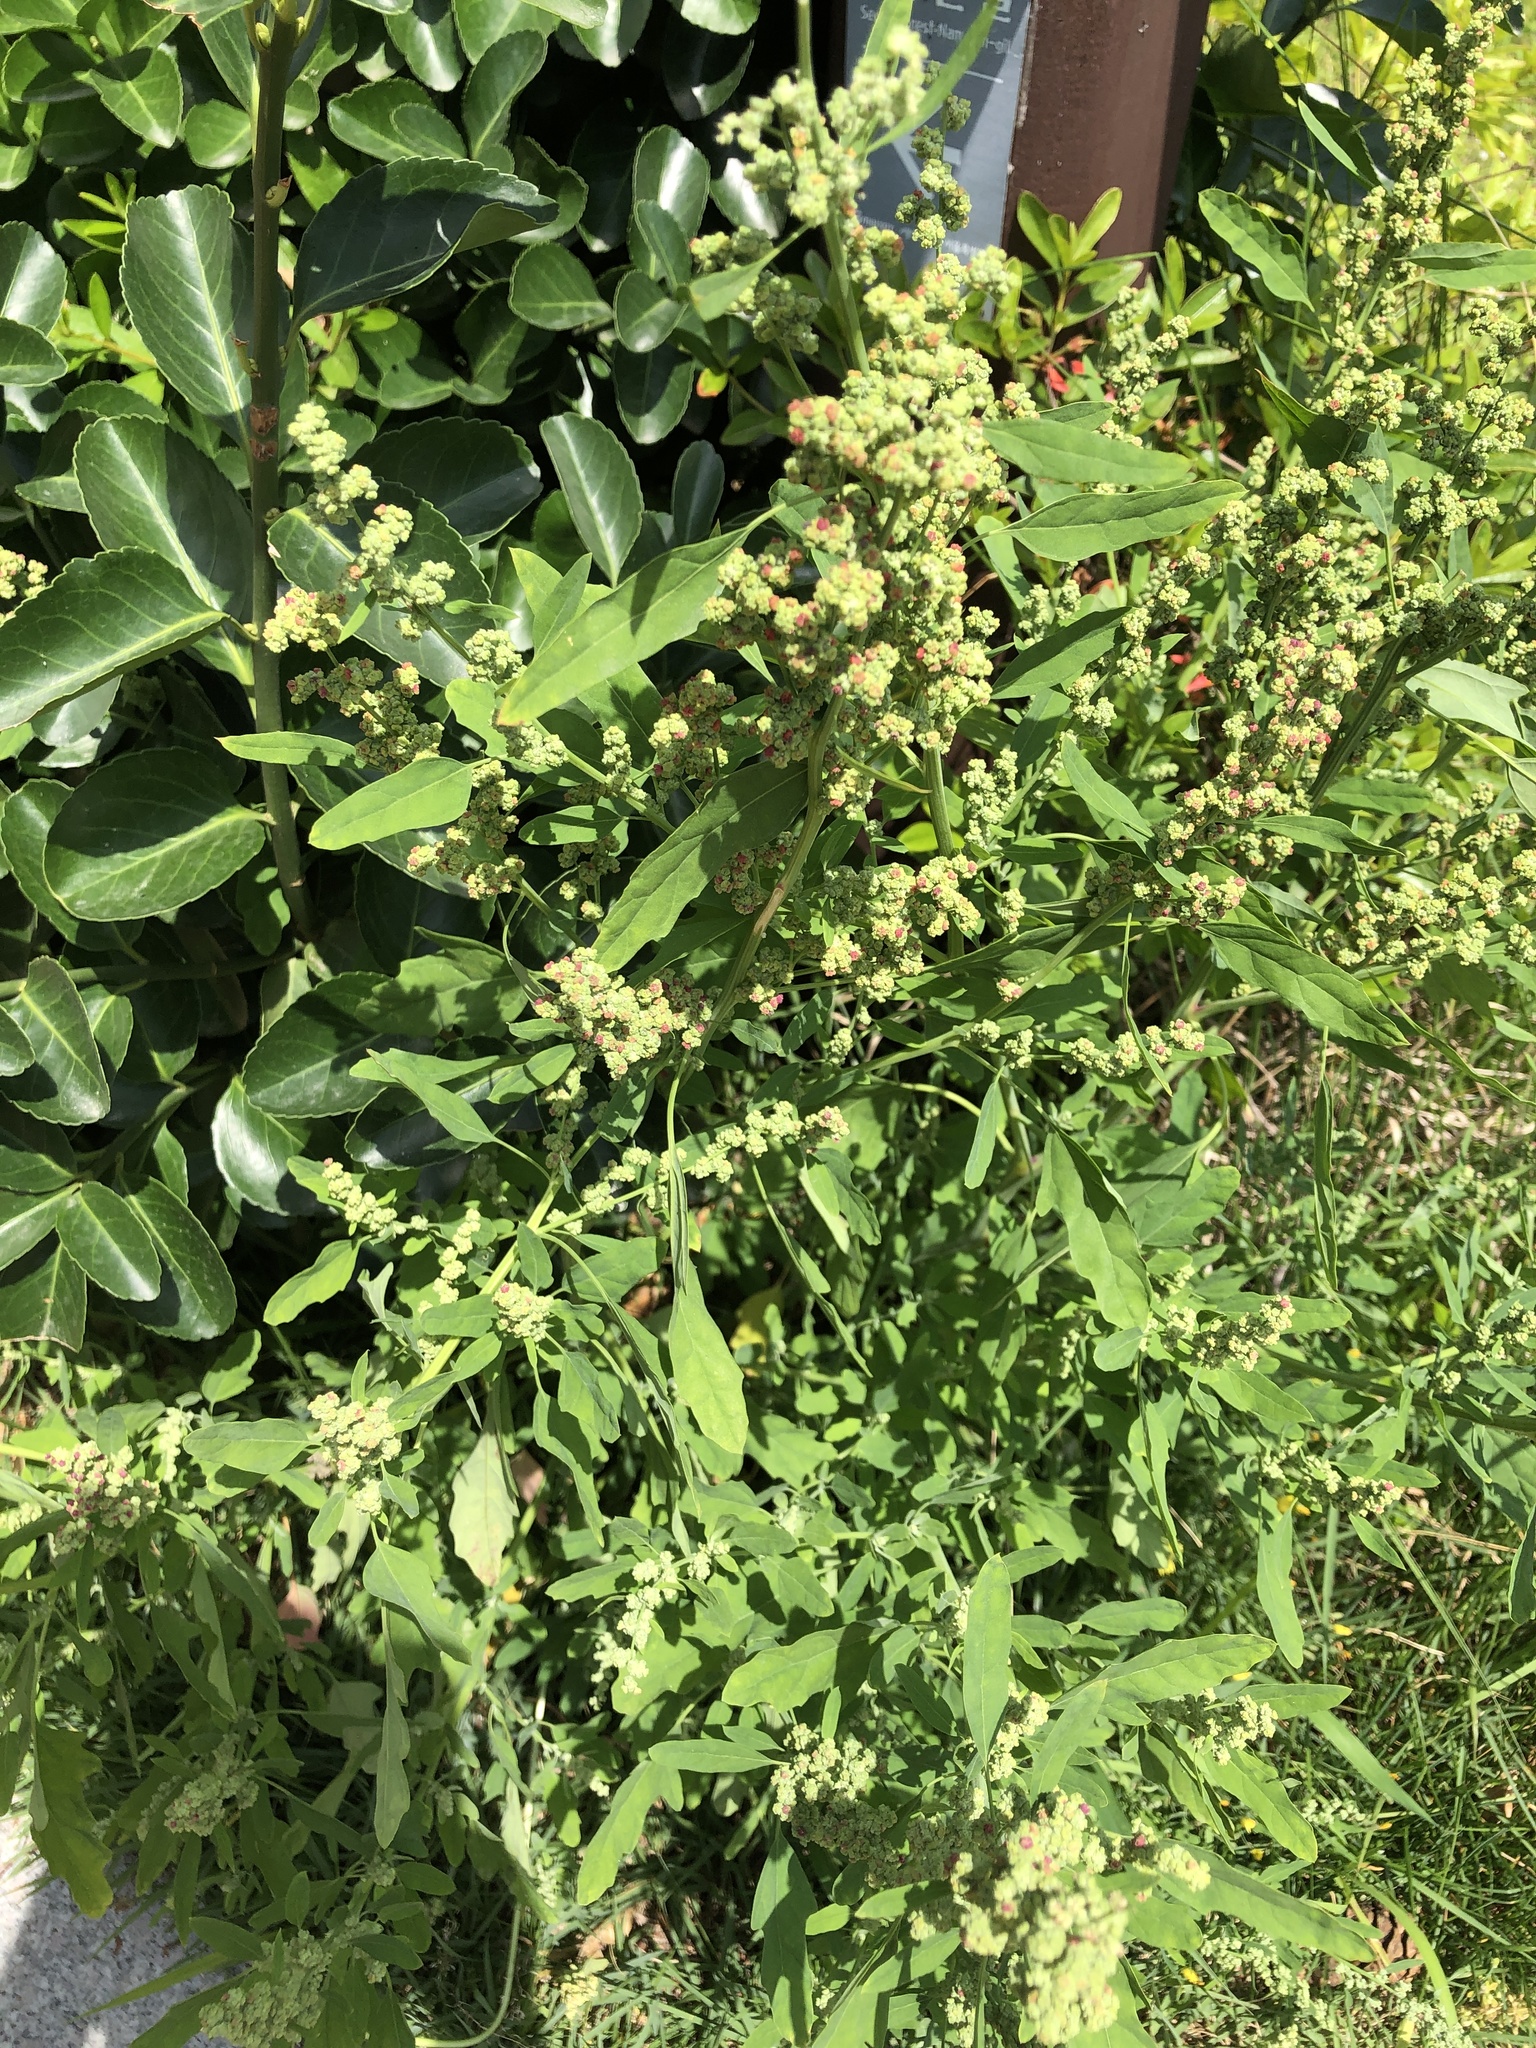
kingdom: Plantae
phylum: Tracheophyta
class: Magnoliopsida
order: Caryophyllales
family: Amaranthaceae
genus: Chenopodium
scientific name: Chenopodium ficifolium
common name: Fig-leaved goosefoot
